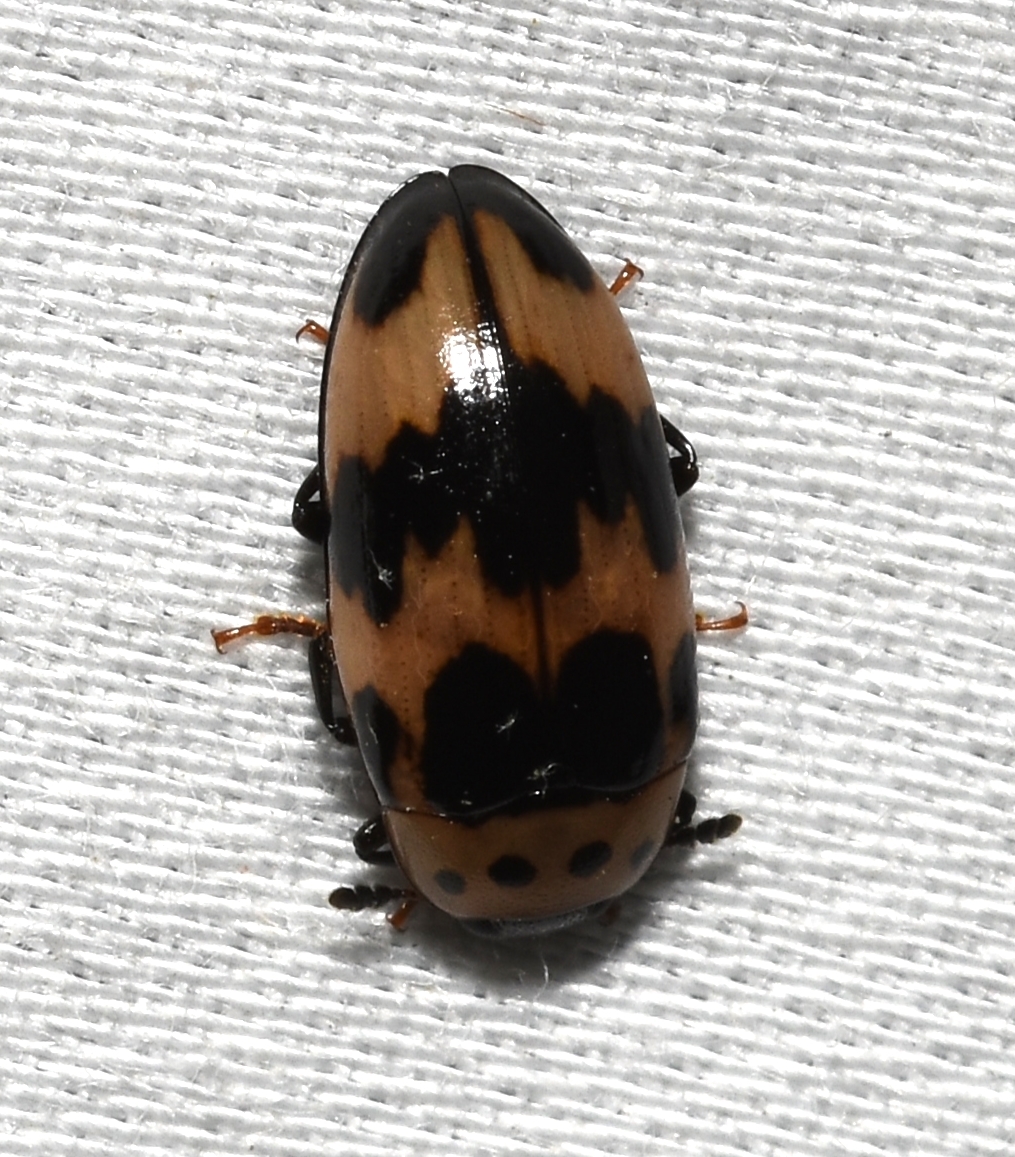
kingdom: Animalia
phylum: Arthropoda
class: Insecta
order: Coleoptera
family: Erotylidae
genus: Ischyrus
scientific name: Ischyrus quadripunctatus
